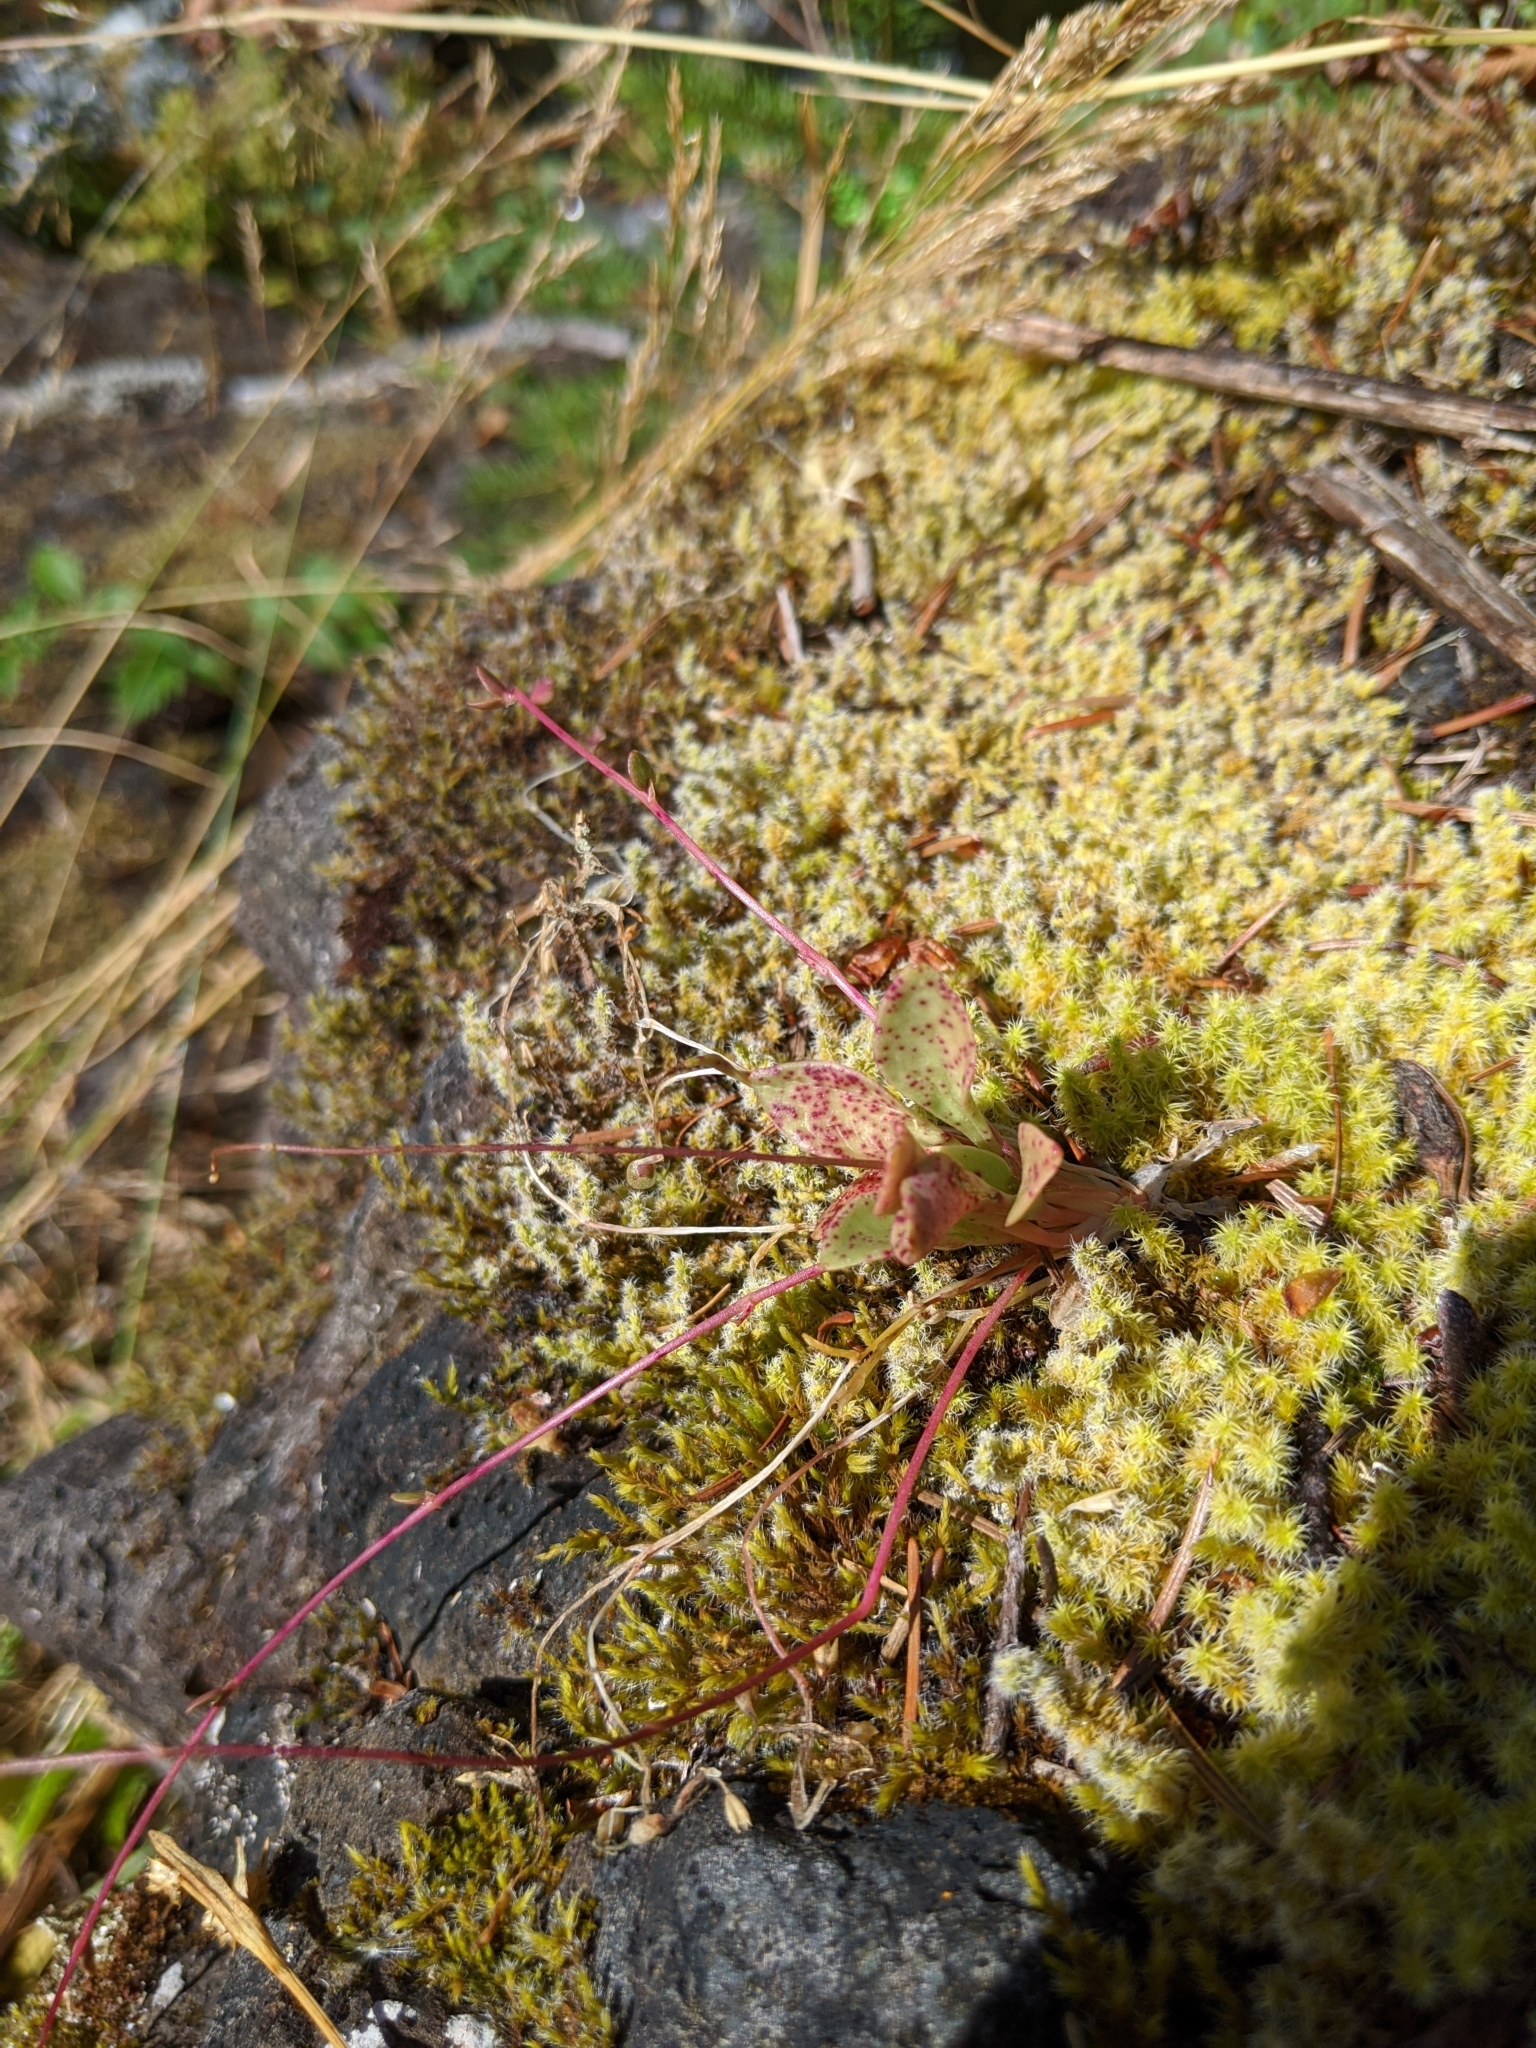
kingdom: Plantae
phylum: Tracheophyta
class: Magnoliopsida
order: Caryophyllales
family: Montiaceae
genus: Montia
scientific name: Montia parvifolia
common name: Small-leaved blinks
